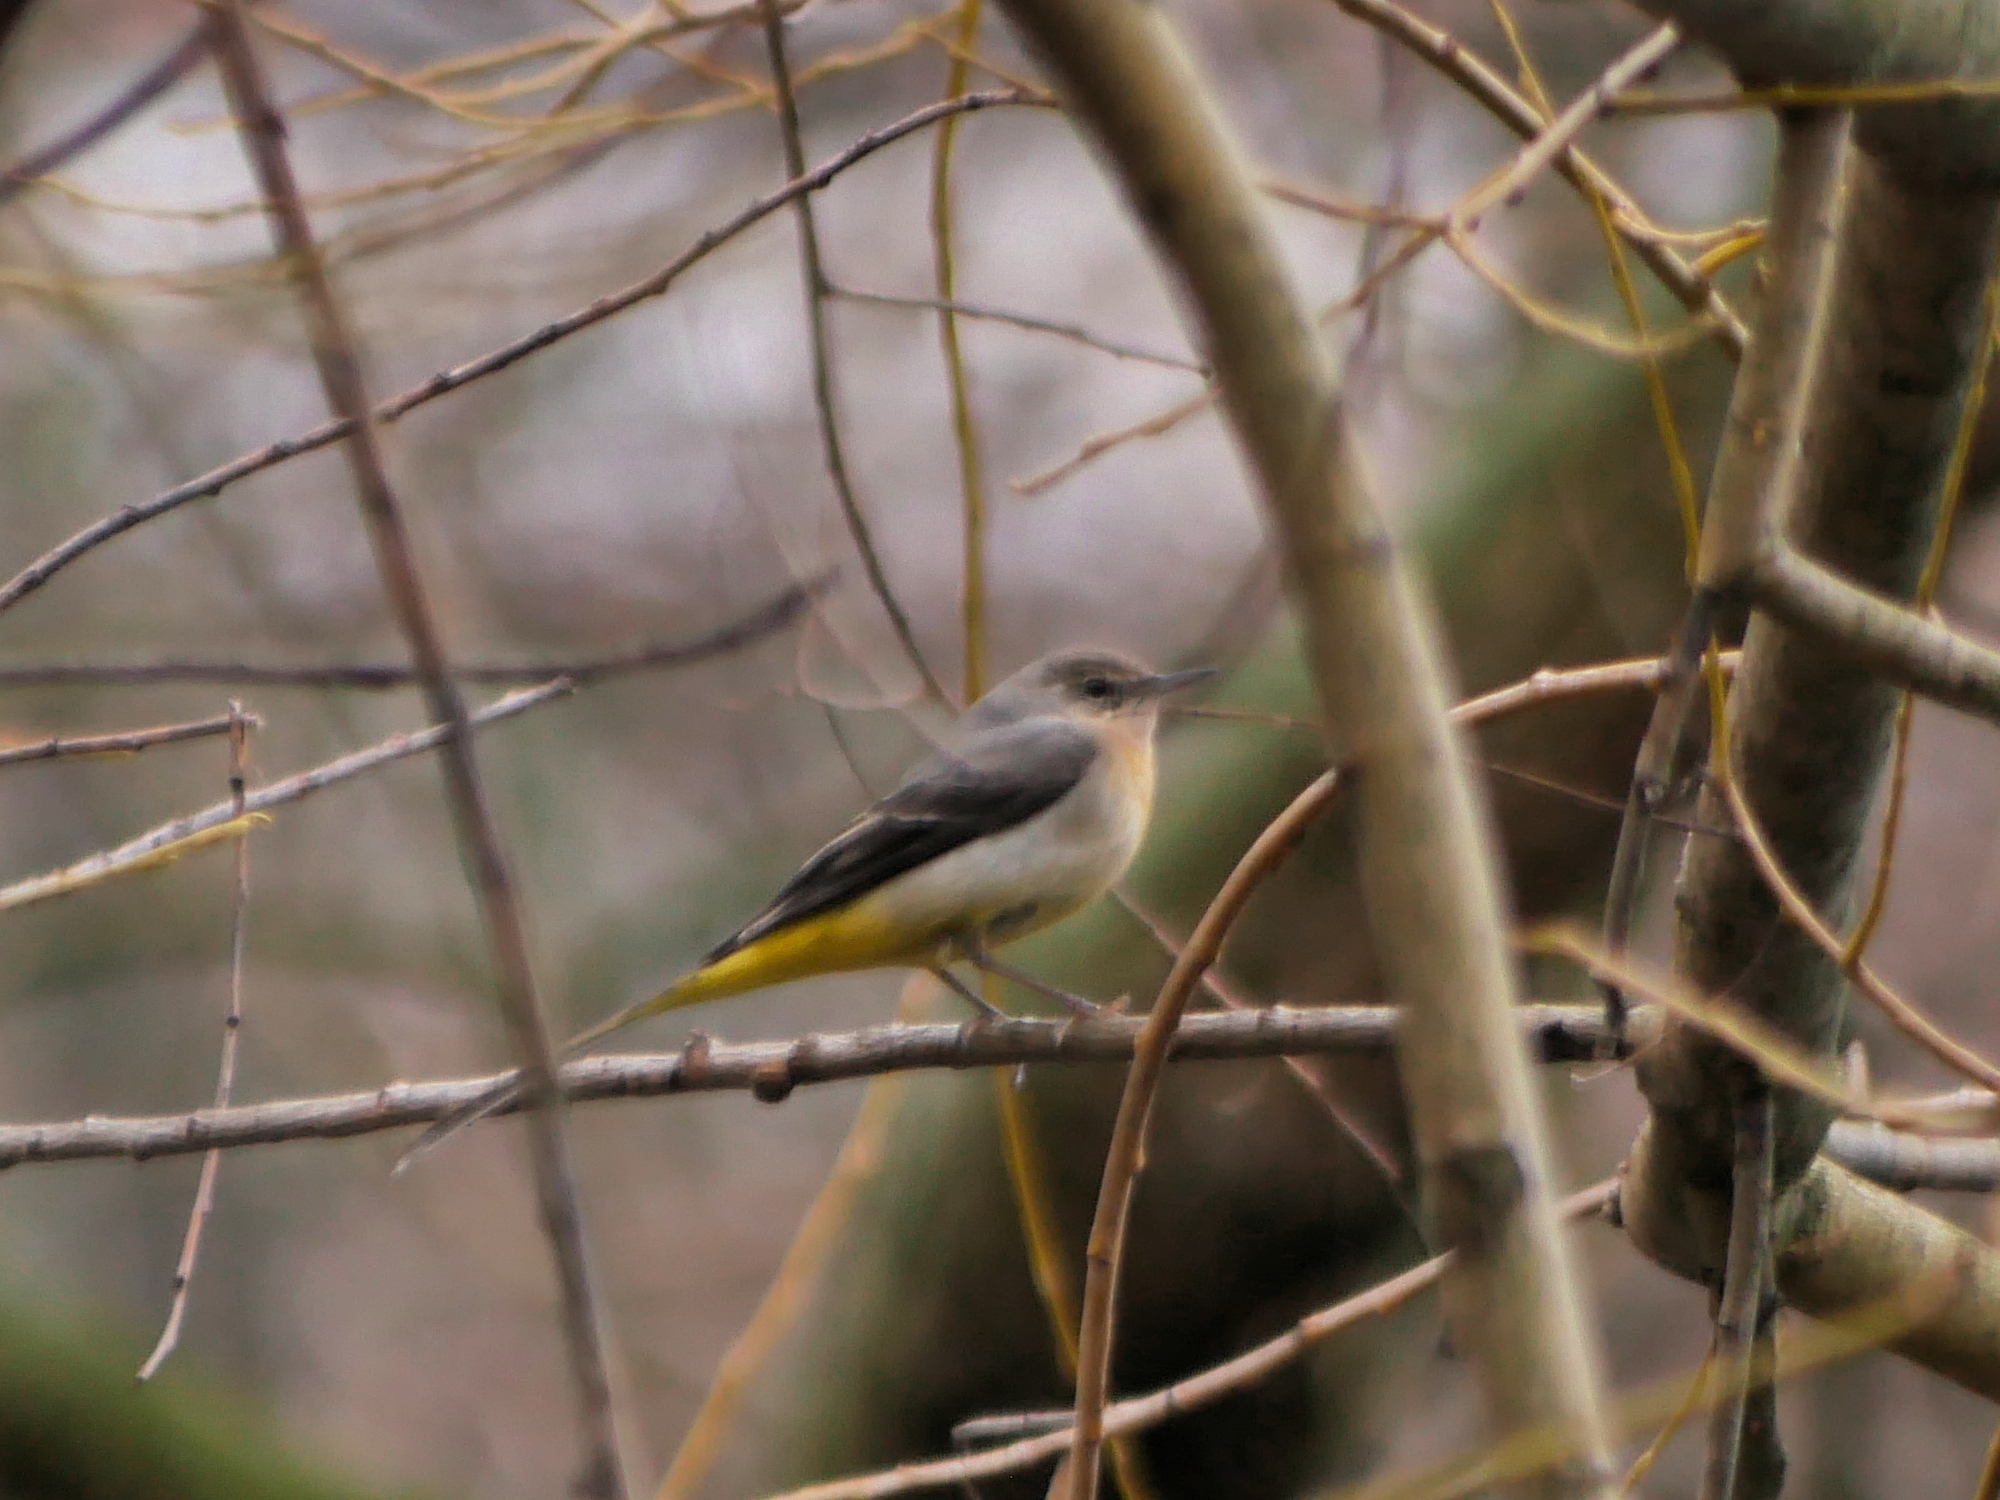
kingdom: Animalia
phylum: Chordata
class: Aves
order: Passeriformes
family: Motacillidae
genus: Motacilla
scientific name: Motacilla cinerea
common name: Grey wagtail
